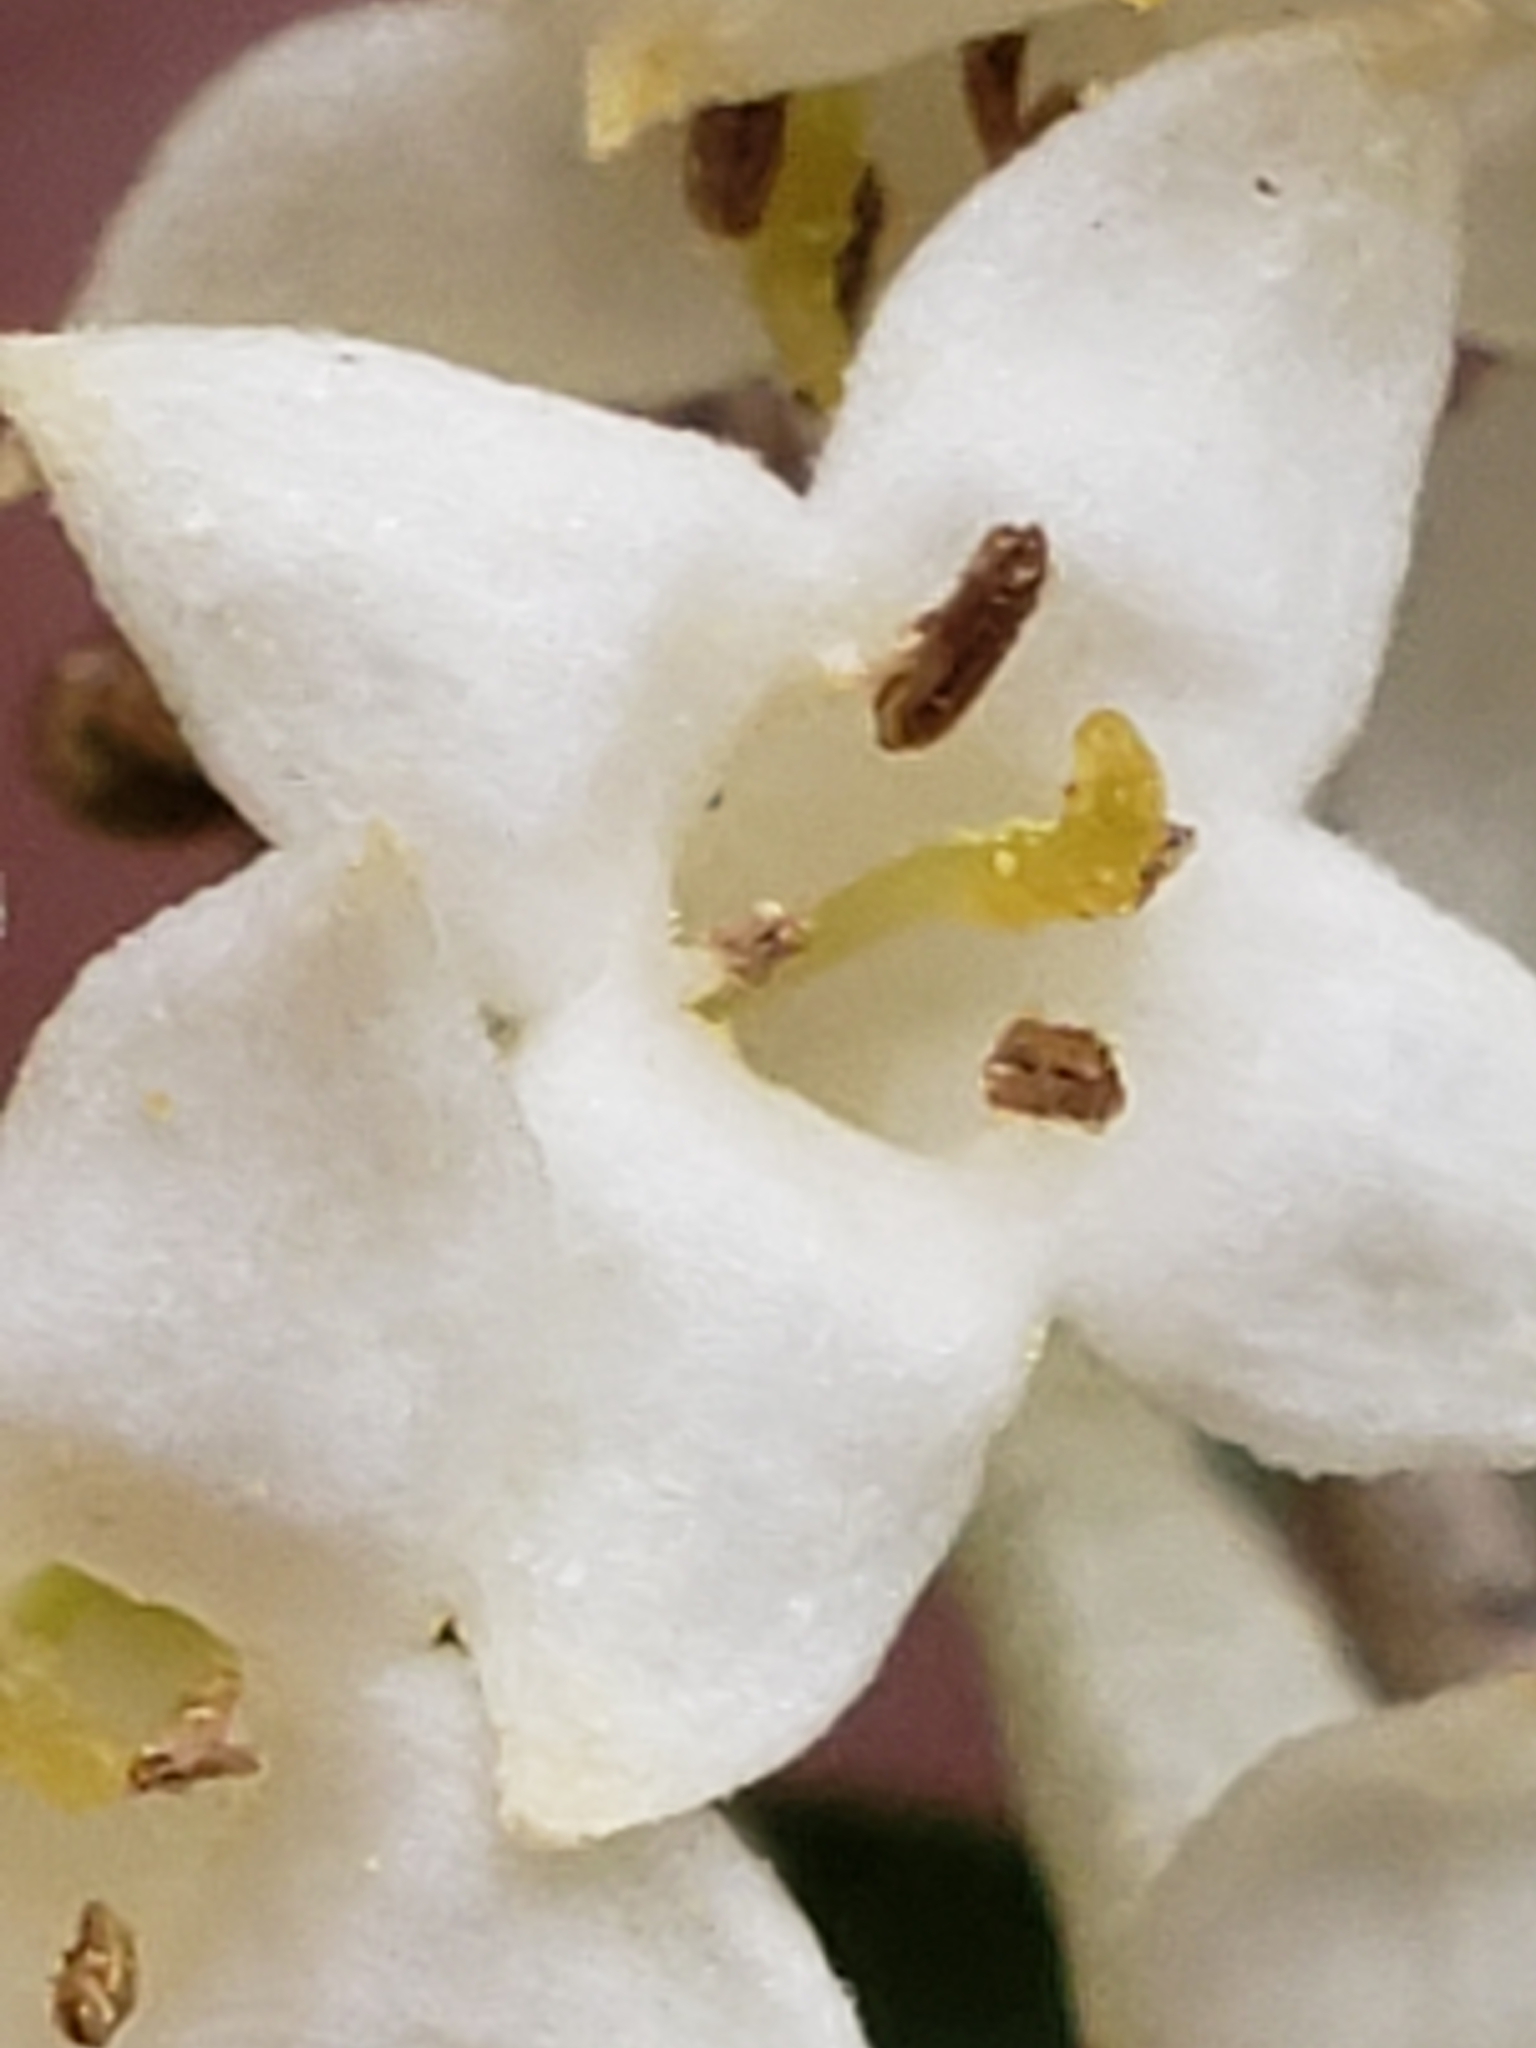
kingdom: Plantae
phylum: Tracheophyta
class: Magnoliopsida
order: Rosales
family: Elaeagnaceae
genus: Elaeagnus
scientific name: Elaeagnus umbellata
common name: Autumn olive
